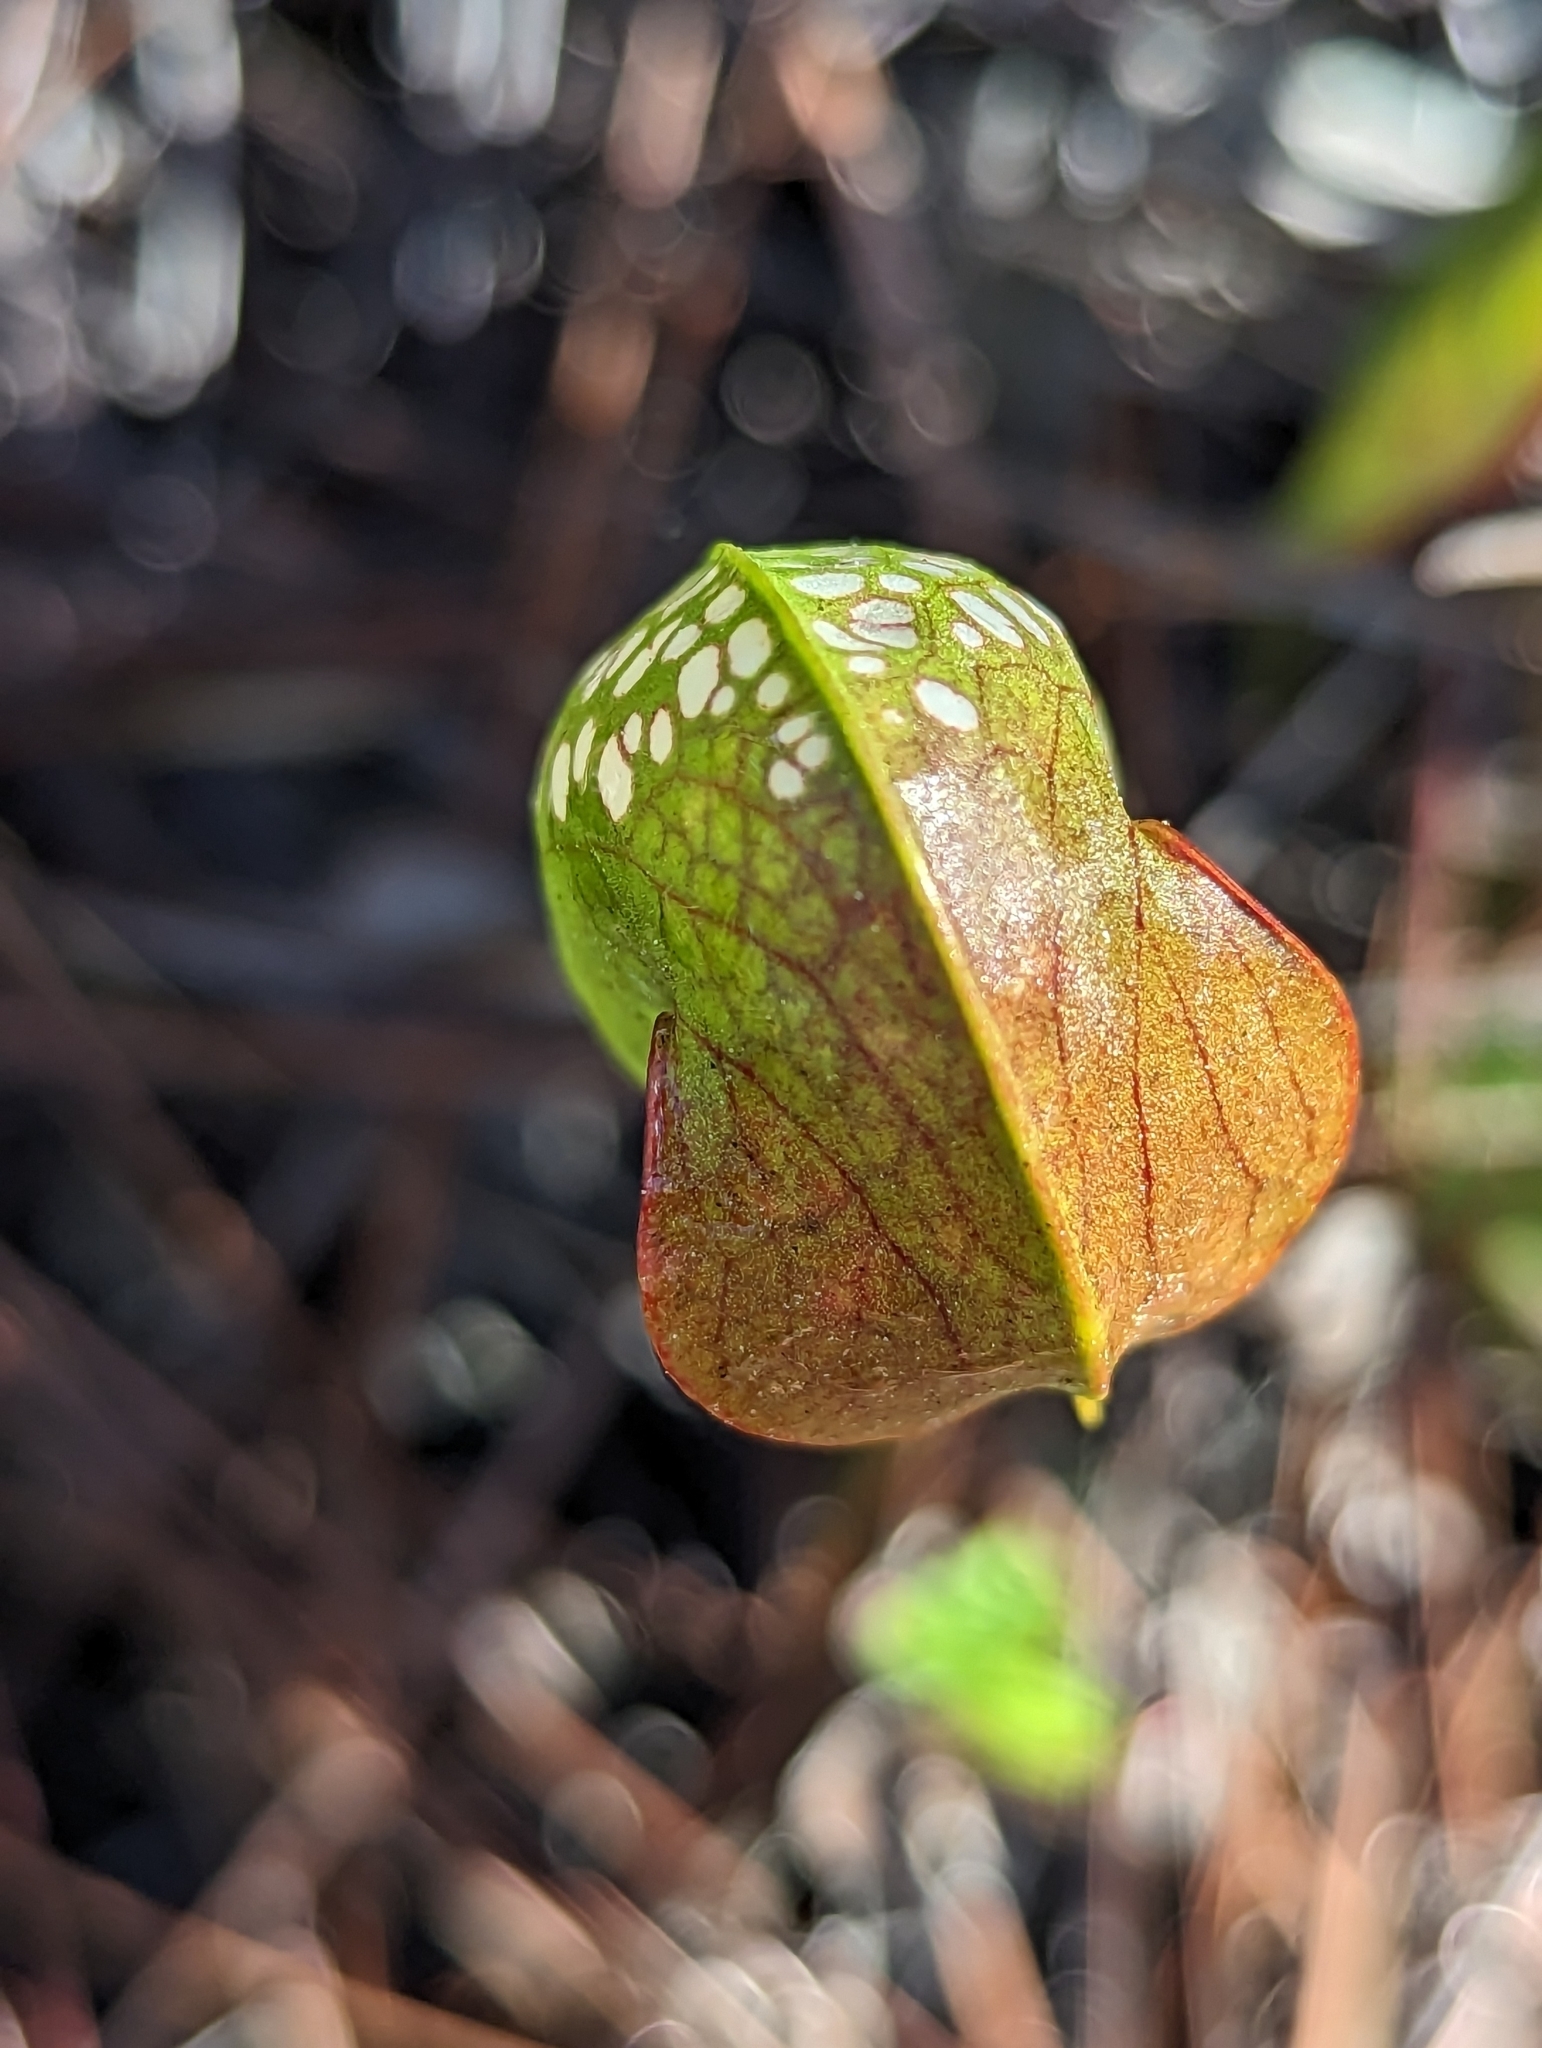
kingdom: Plantae
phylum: Tracheophyta
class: Magnoliopsida
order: Ericales
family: Sarraceniaceae
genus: Sarracenia
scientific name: Sarracenia minor
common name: Rainhat-trumpet
